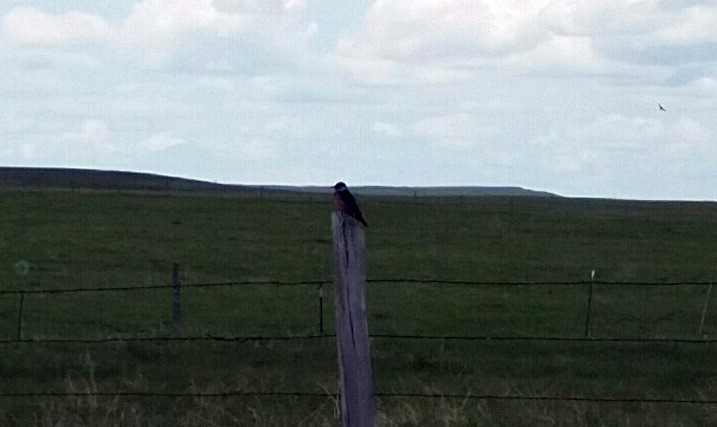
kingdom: Animalia
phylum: Chordata
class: Aves
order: Piciformes
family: Picidae
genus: Melanerpes
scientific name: Melanerpes lewis
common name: Lewis's woodpecker
